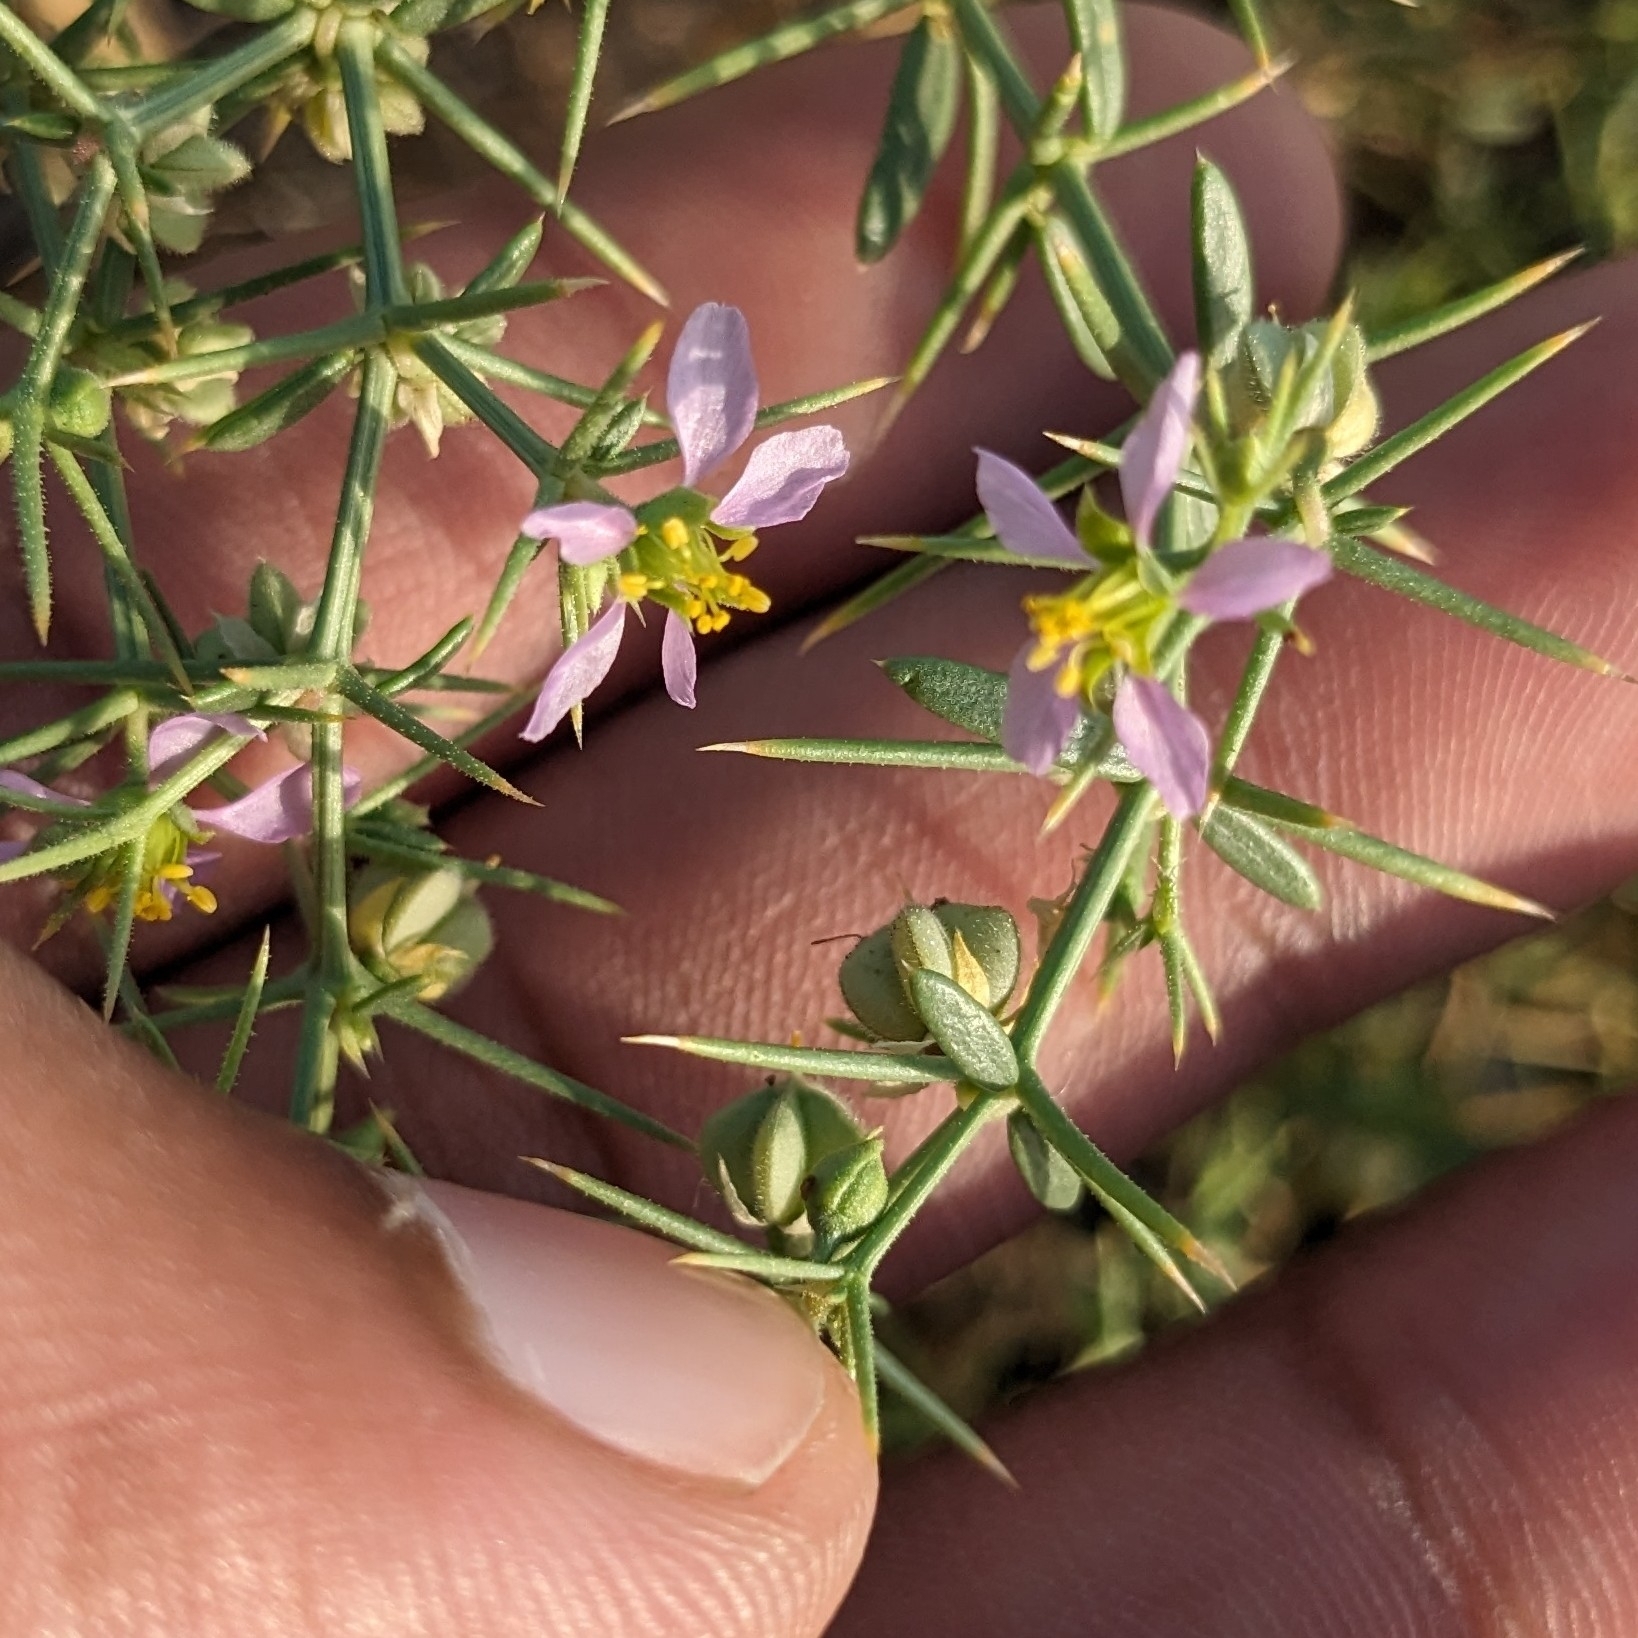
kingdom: Plantae
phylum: Tracheophyta
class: Magnoliopsida
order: Zygophyllales
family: Zygophyllaceae
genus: Fagonia
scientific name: Fagonia indica
